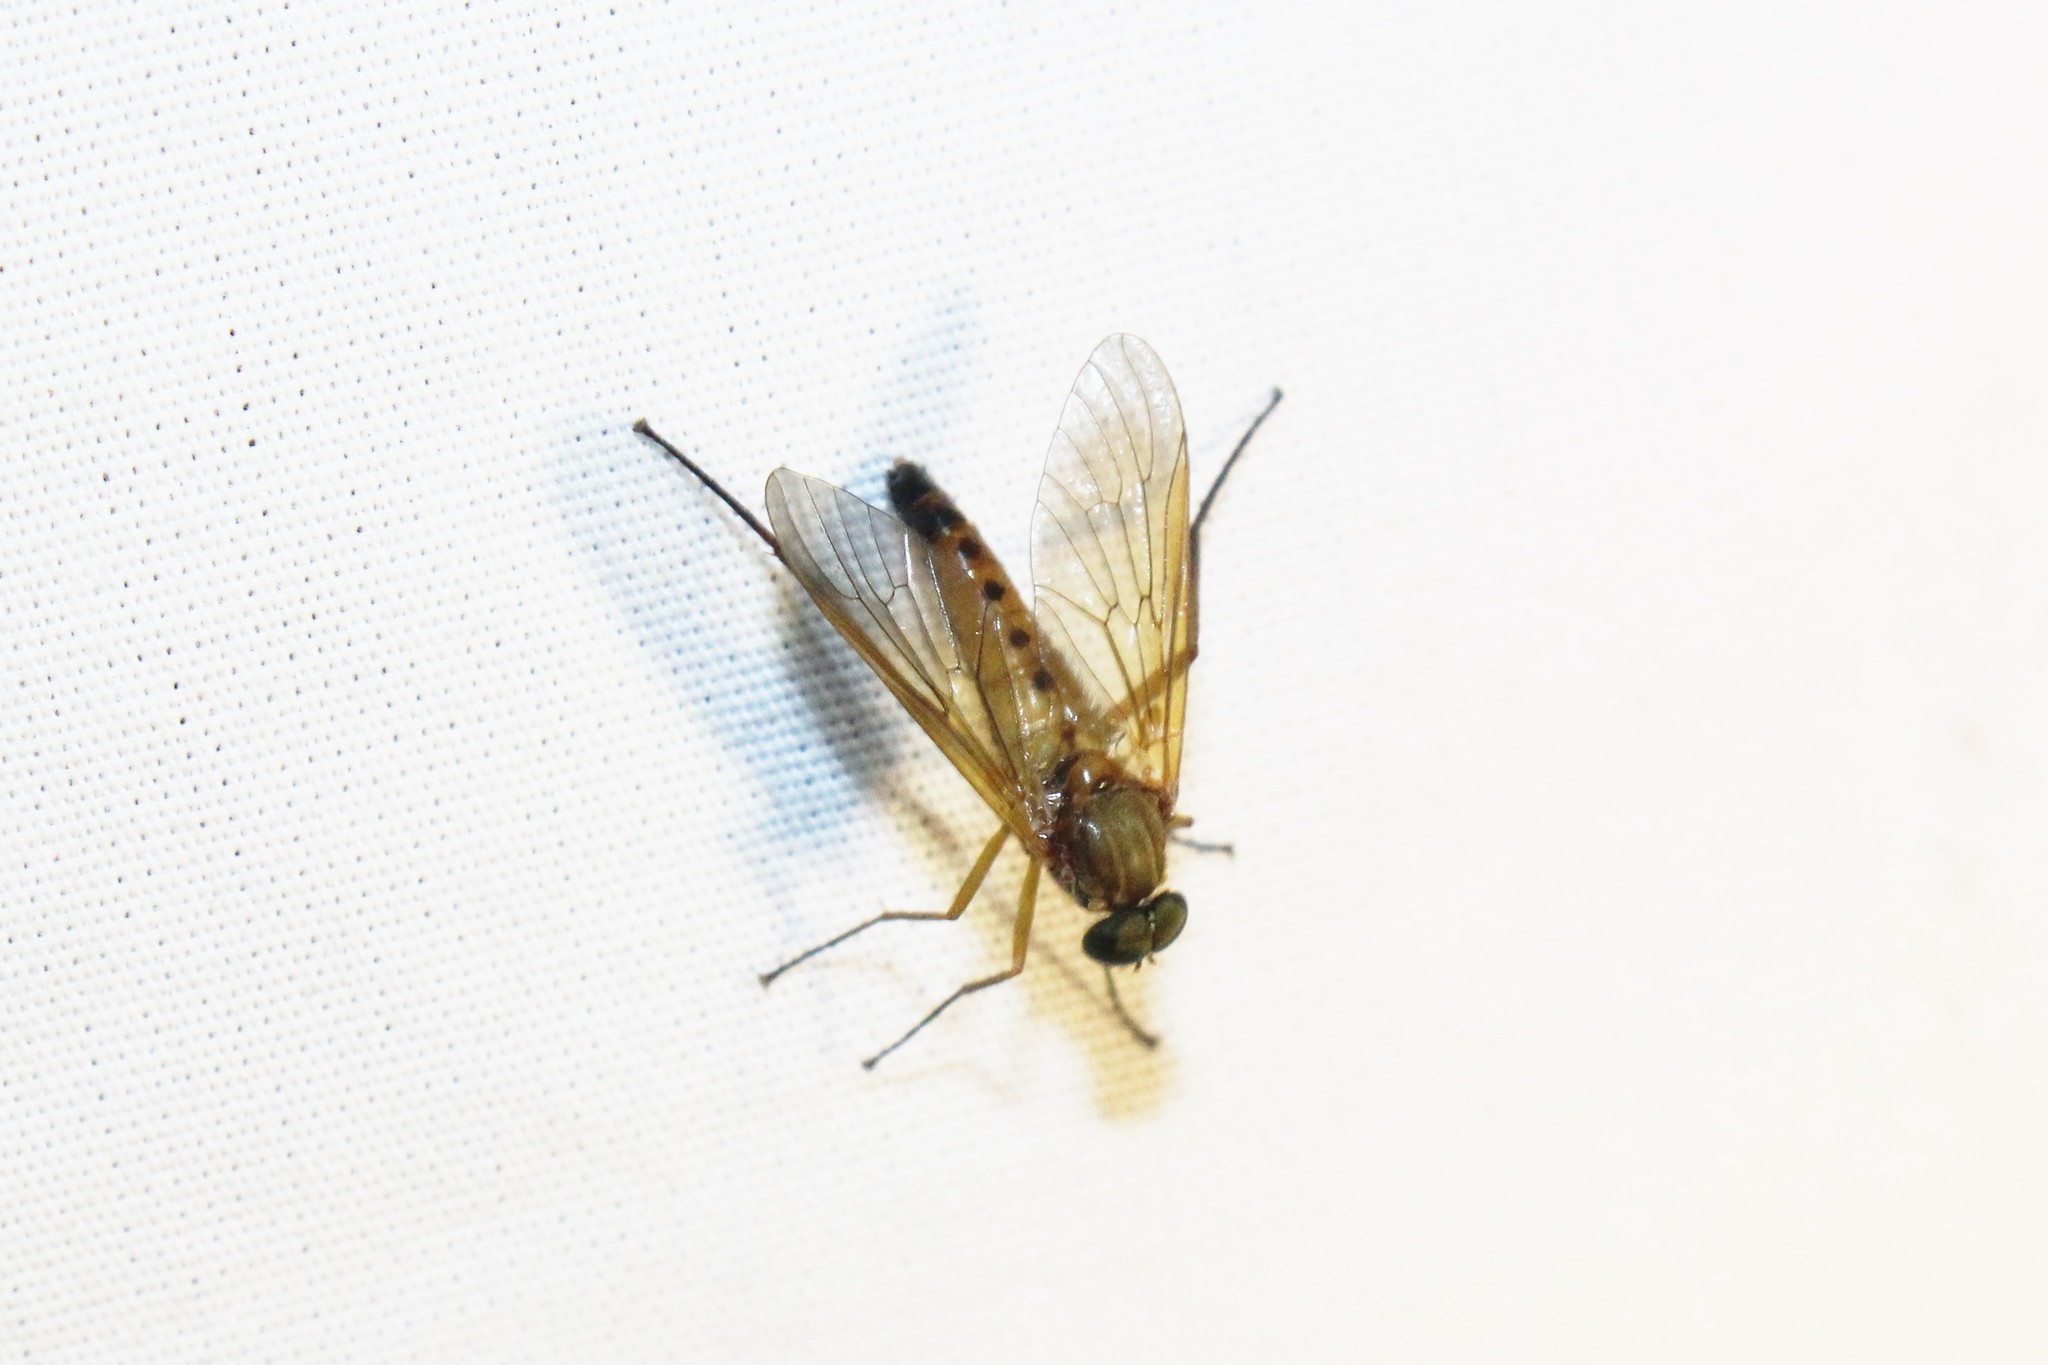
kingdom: Animalia
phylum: Arthropoda
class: Insecta
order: Diptera
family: Rhagionidae
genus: Rhagio
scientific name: Rhagio tringaria
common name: Marsh snipefly
